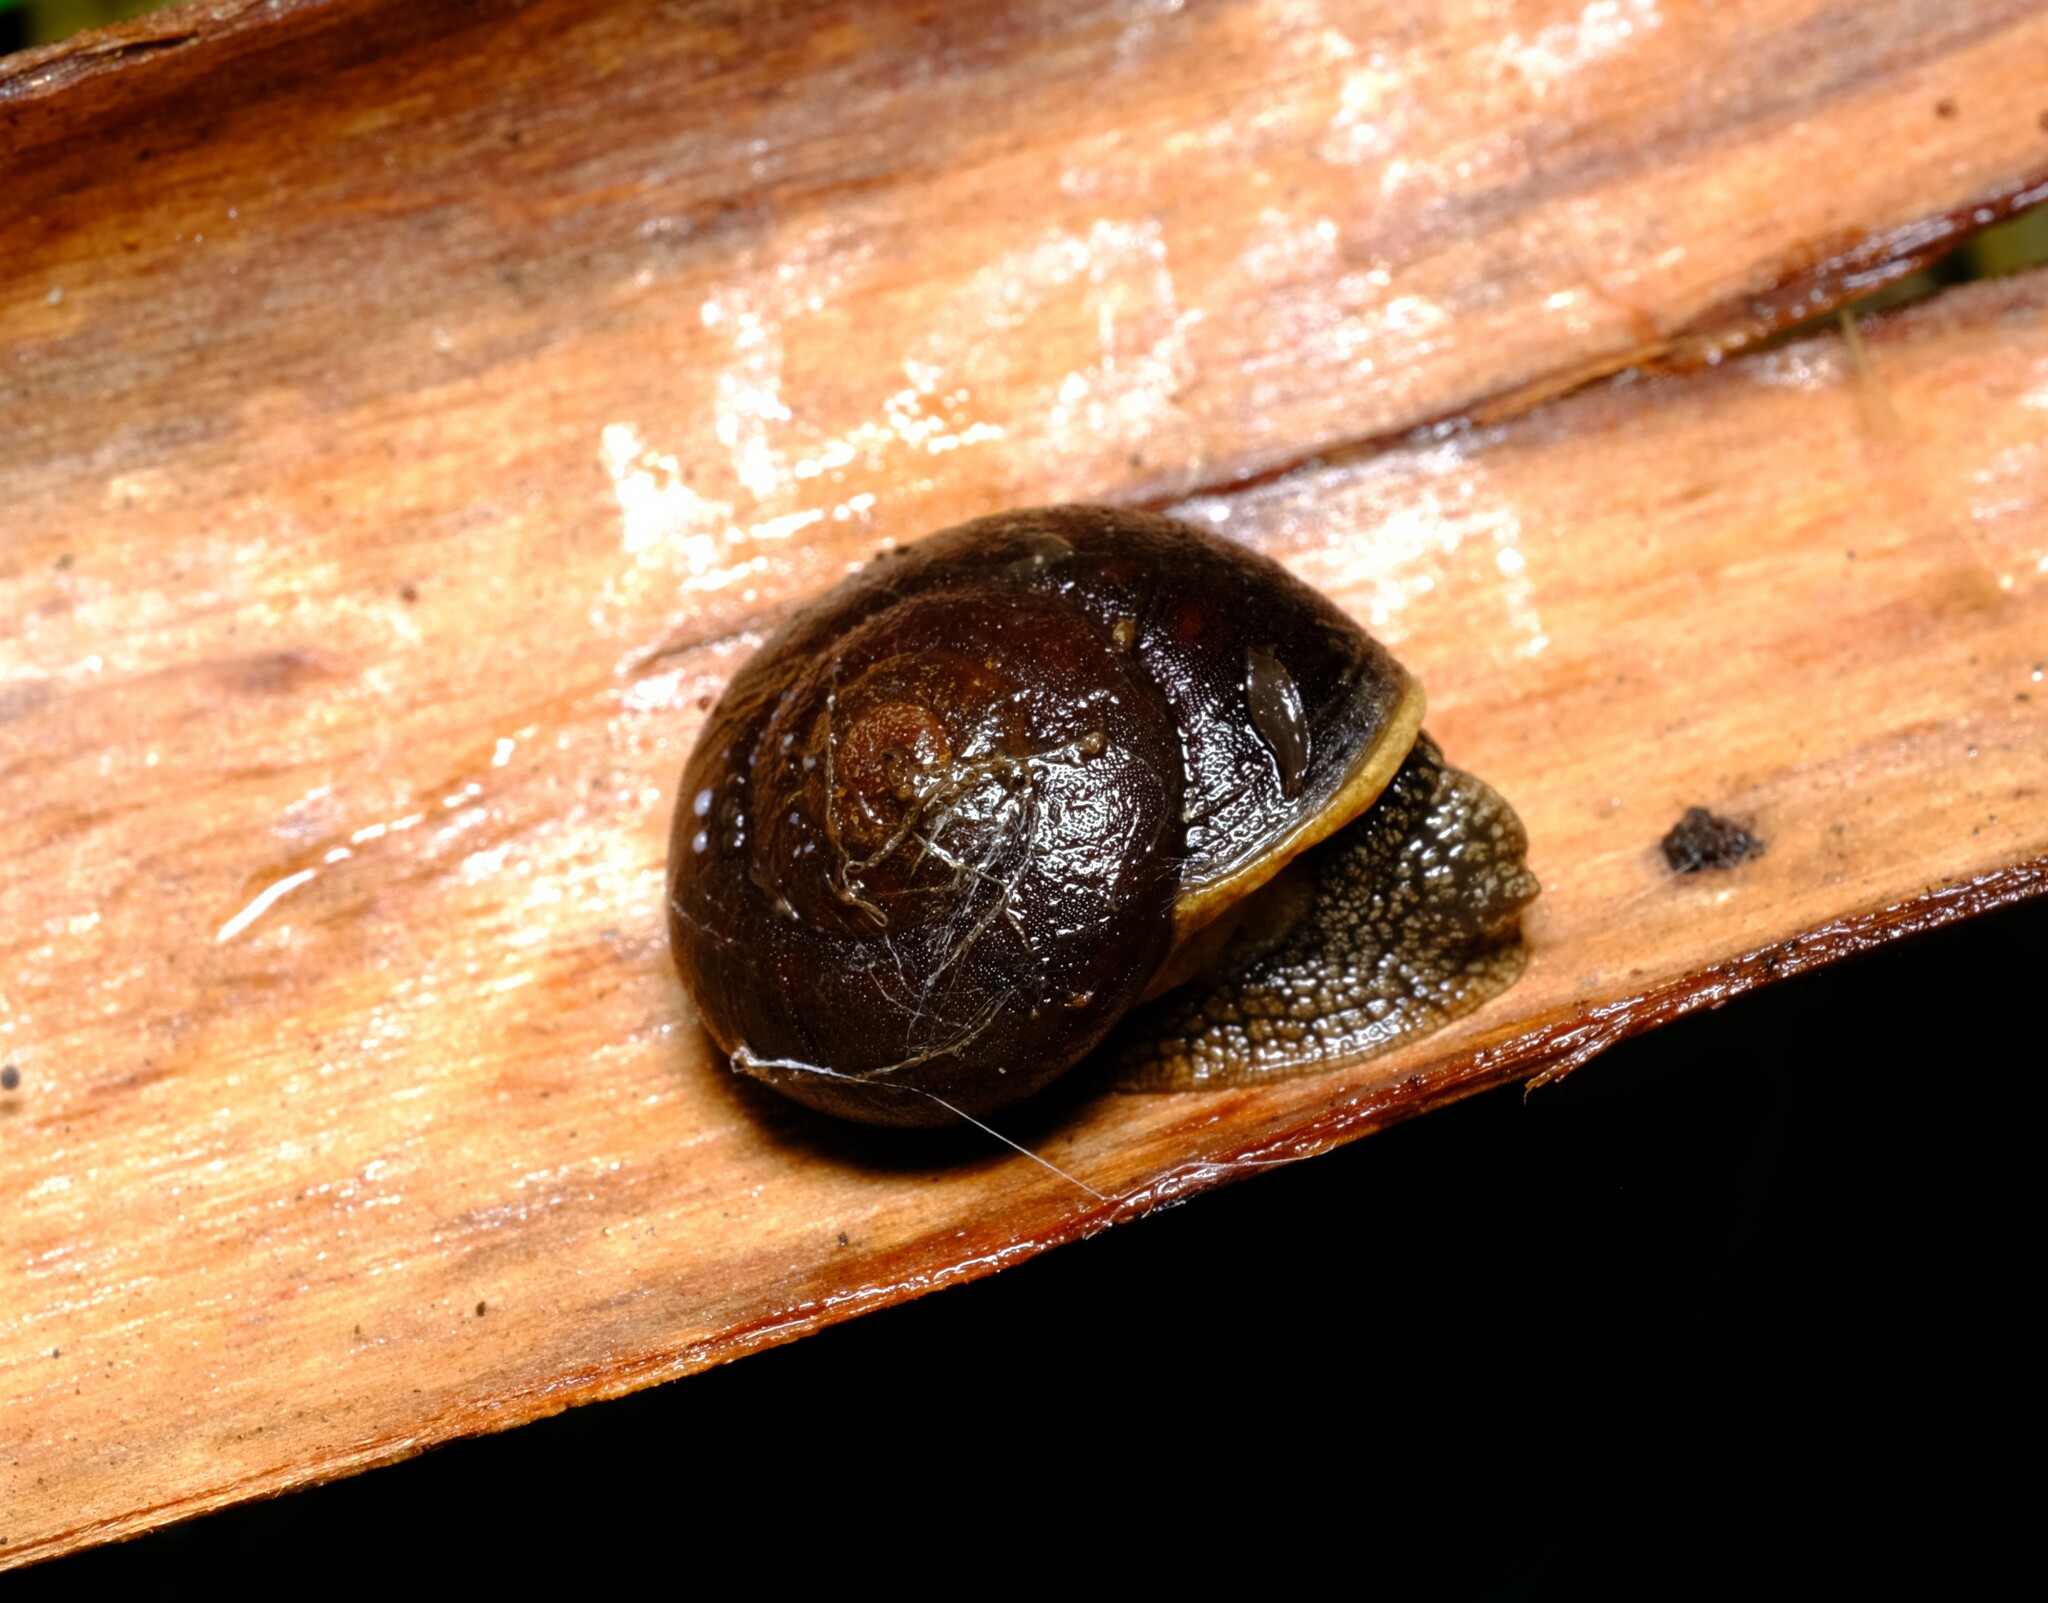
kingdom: Animalia
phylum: Mollusca
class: Gastropoda
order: Stylommatophora
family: Camaenidae
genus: Chloritobadistes
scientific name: Chloritobadistes victoriae
